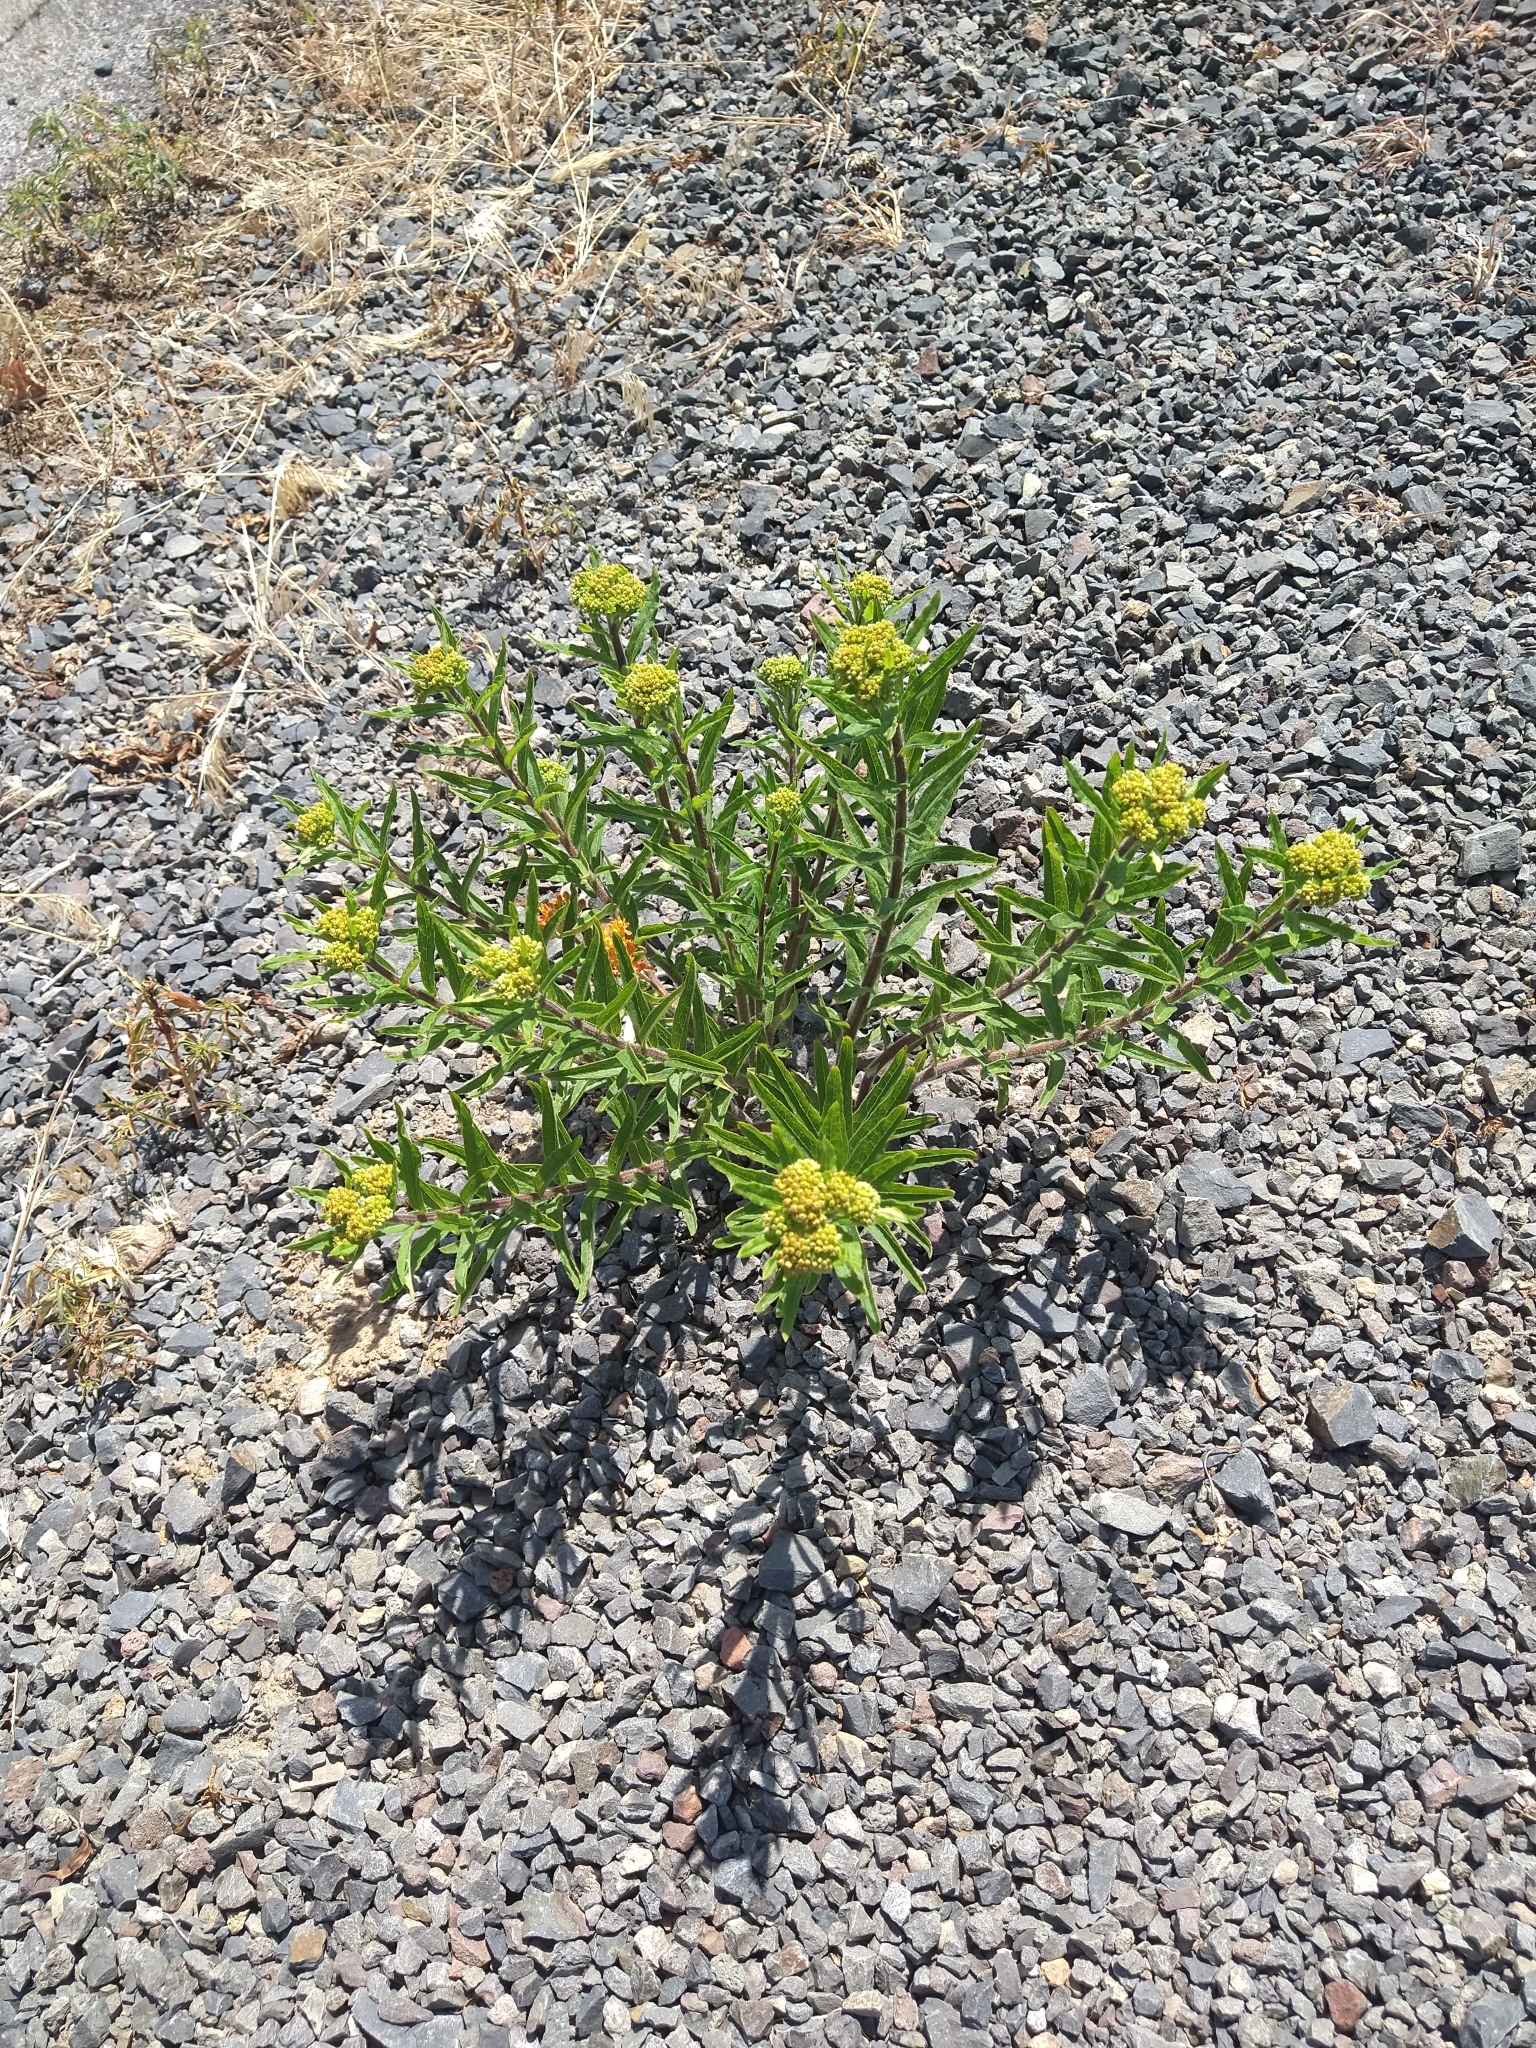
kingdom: Plantae
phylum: Tracheophyta
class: Magnoliopsida
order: Gentianales
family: Apocynaceae
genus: Asclepias
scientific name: Asclepias tuberosa
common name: Butterfly milkweed
